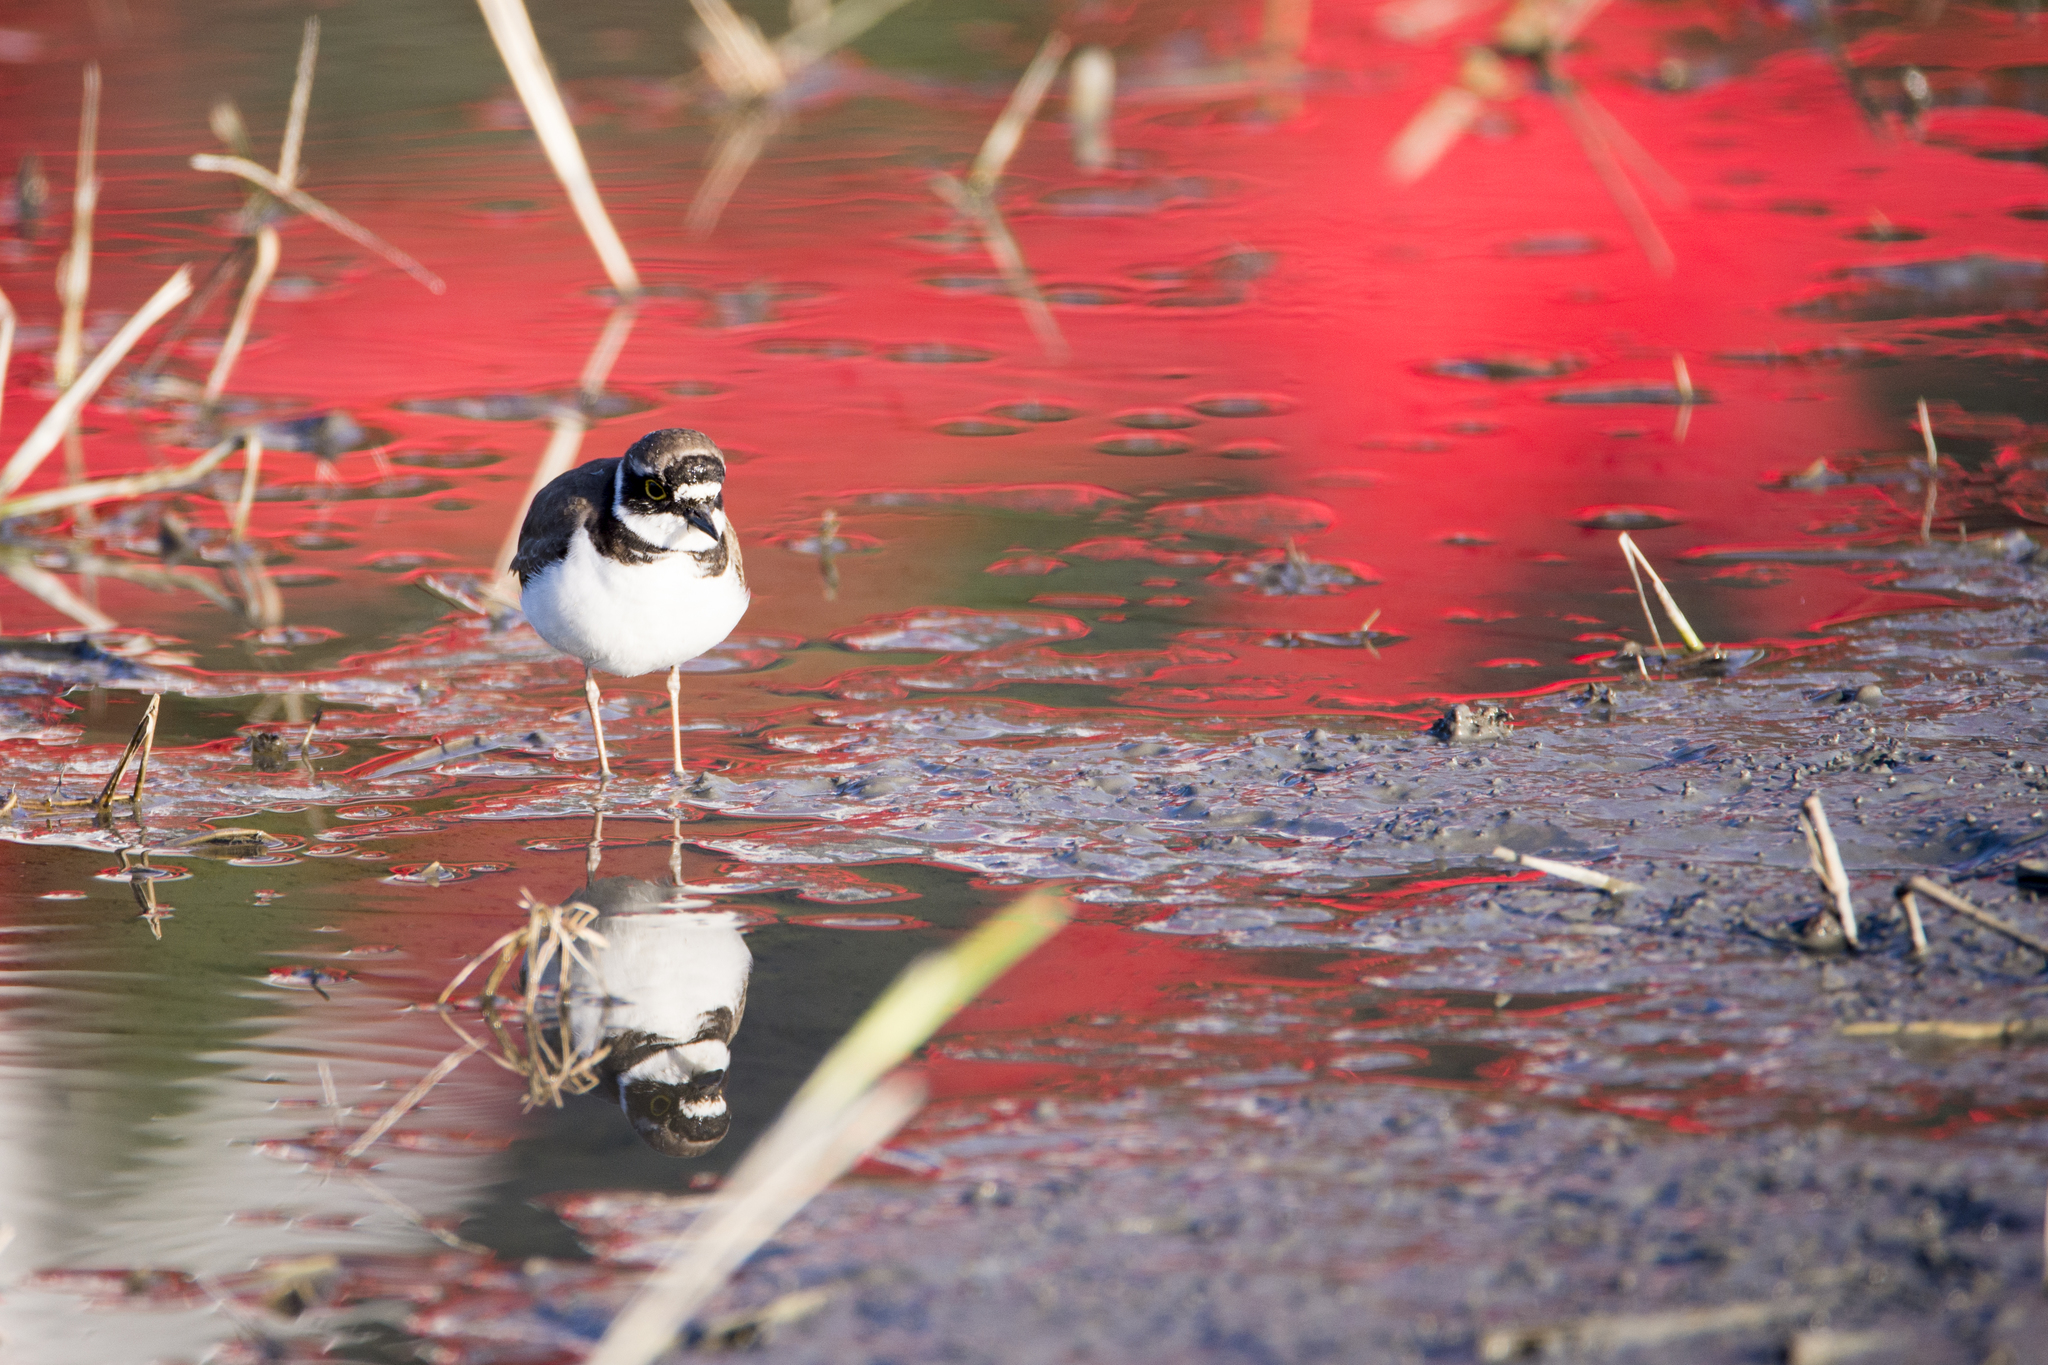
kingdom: Animalia
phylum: Chordata
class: Aves
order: Charadriiformes
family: Charadriidae
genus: Charadrius
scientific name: Charadrius dubius
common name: Little ringed plover
